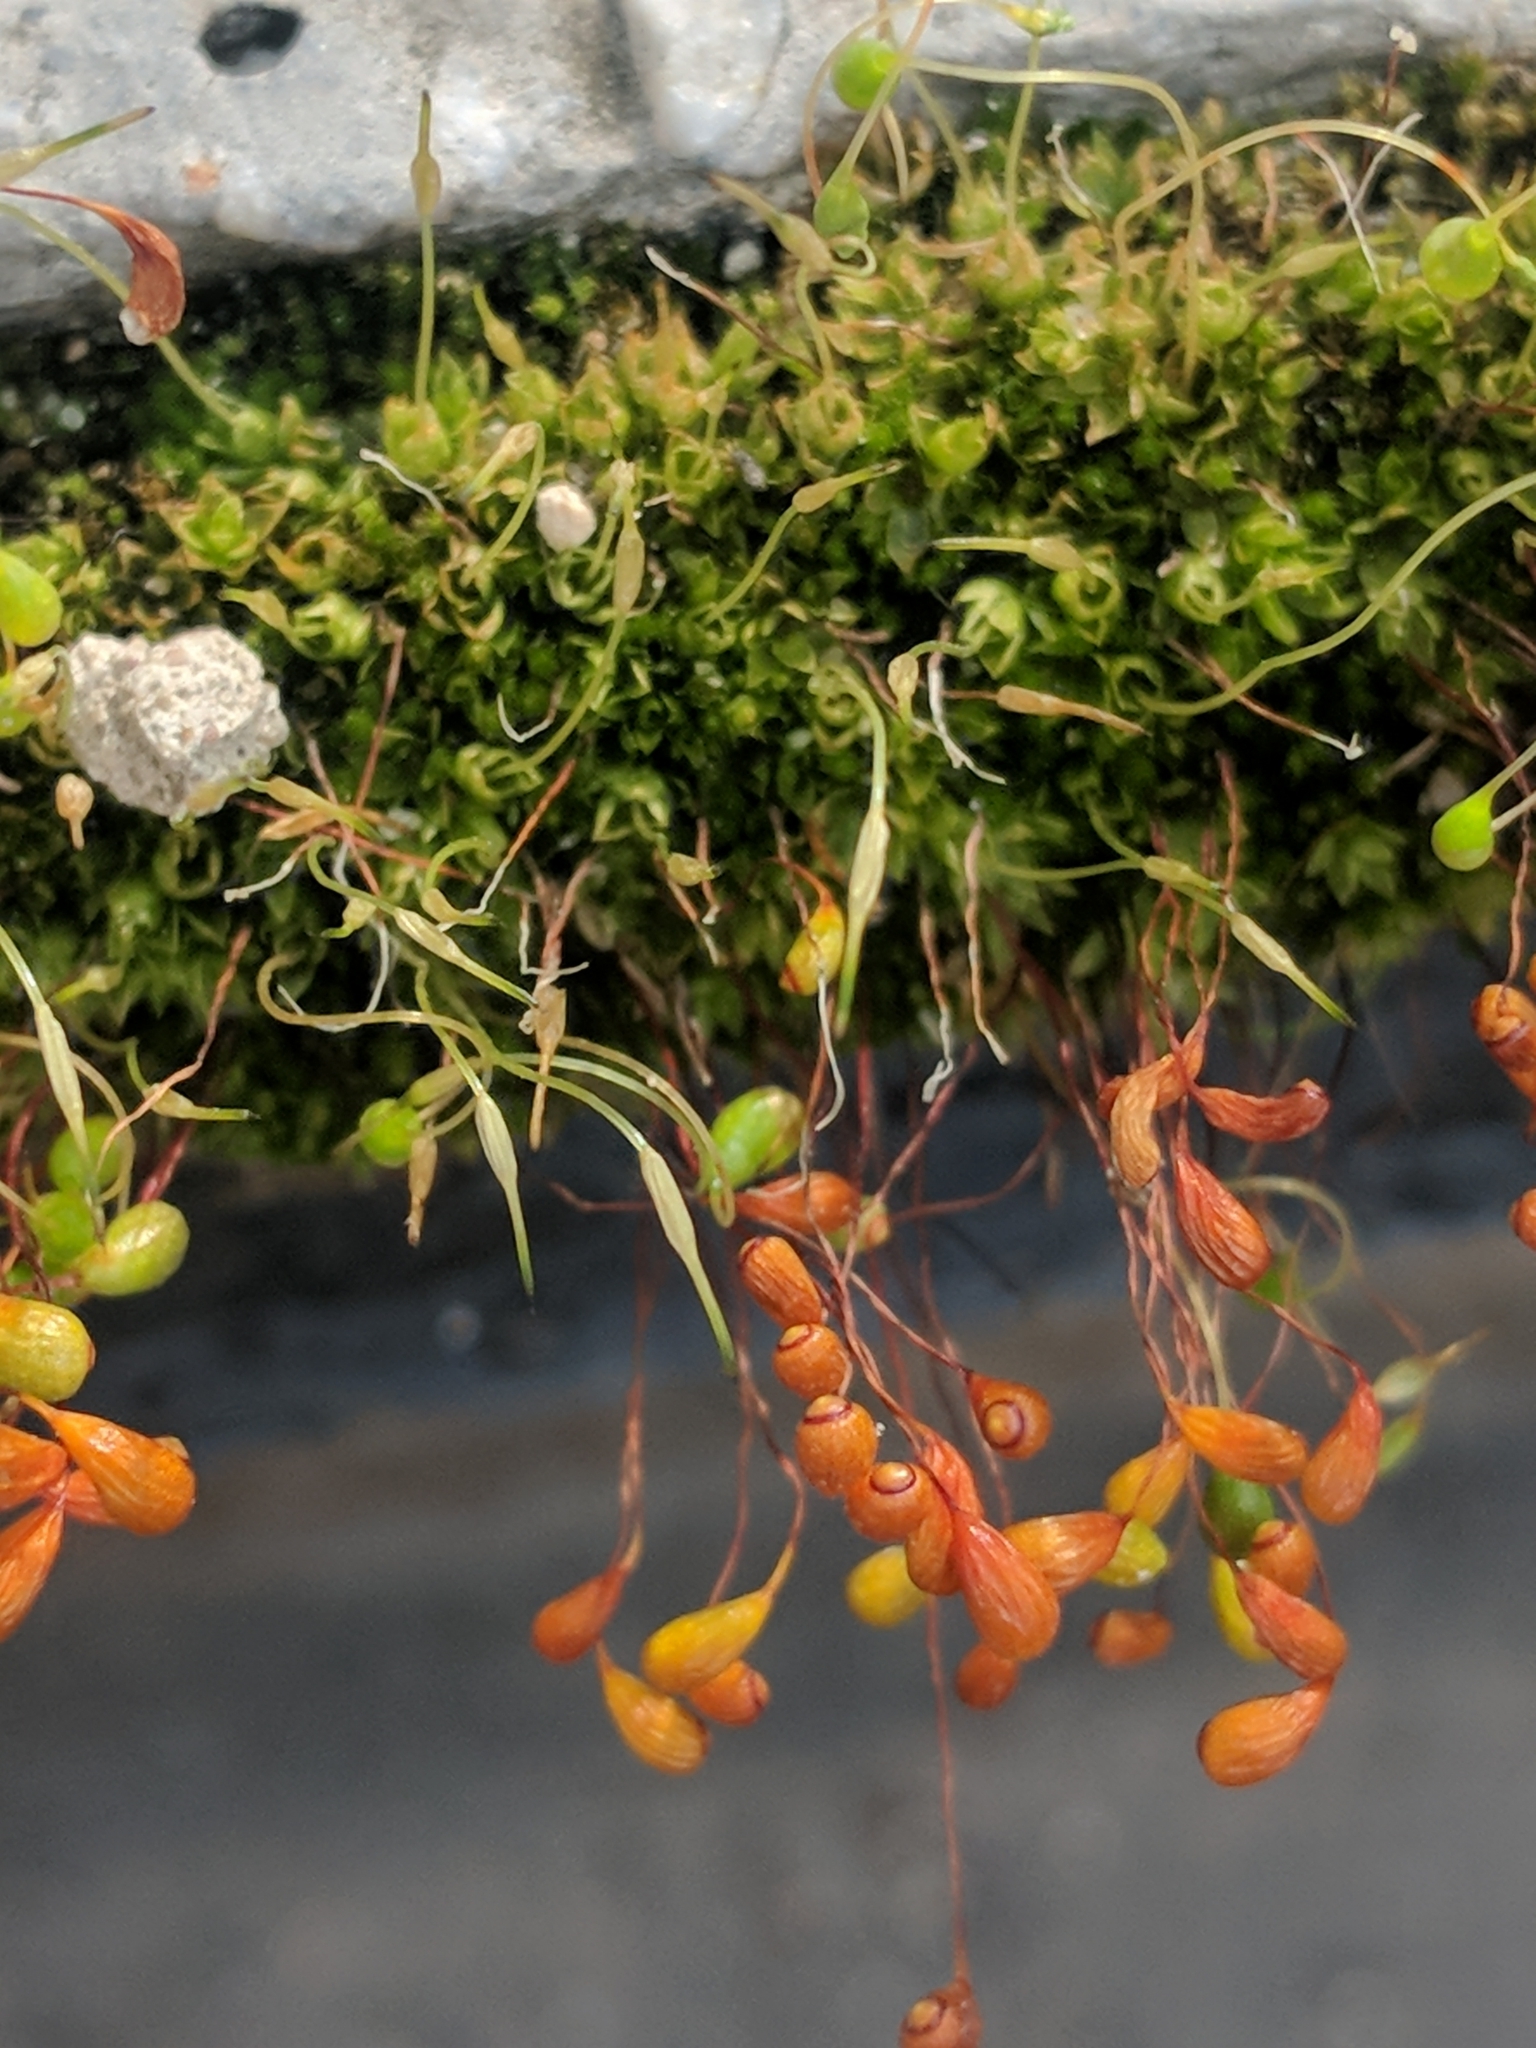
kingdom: Plantae
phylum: Bryophyta
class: Bryopsida
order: Funariales
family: Funariaceae
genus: Funaria
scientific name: Funaria hygrometrica
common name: Common cord moss
